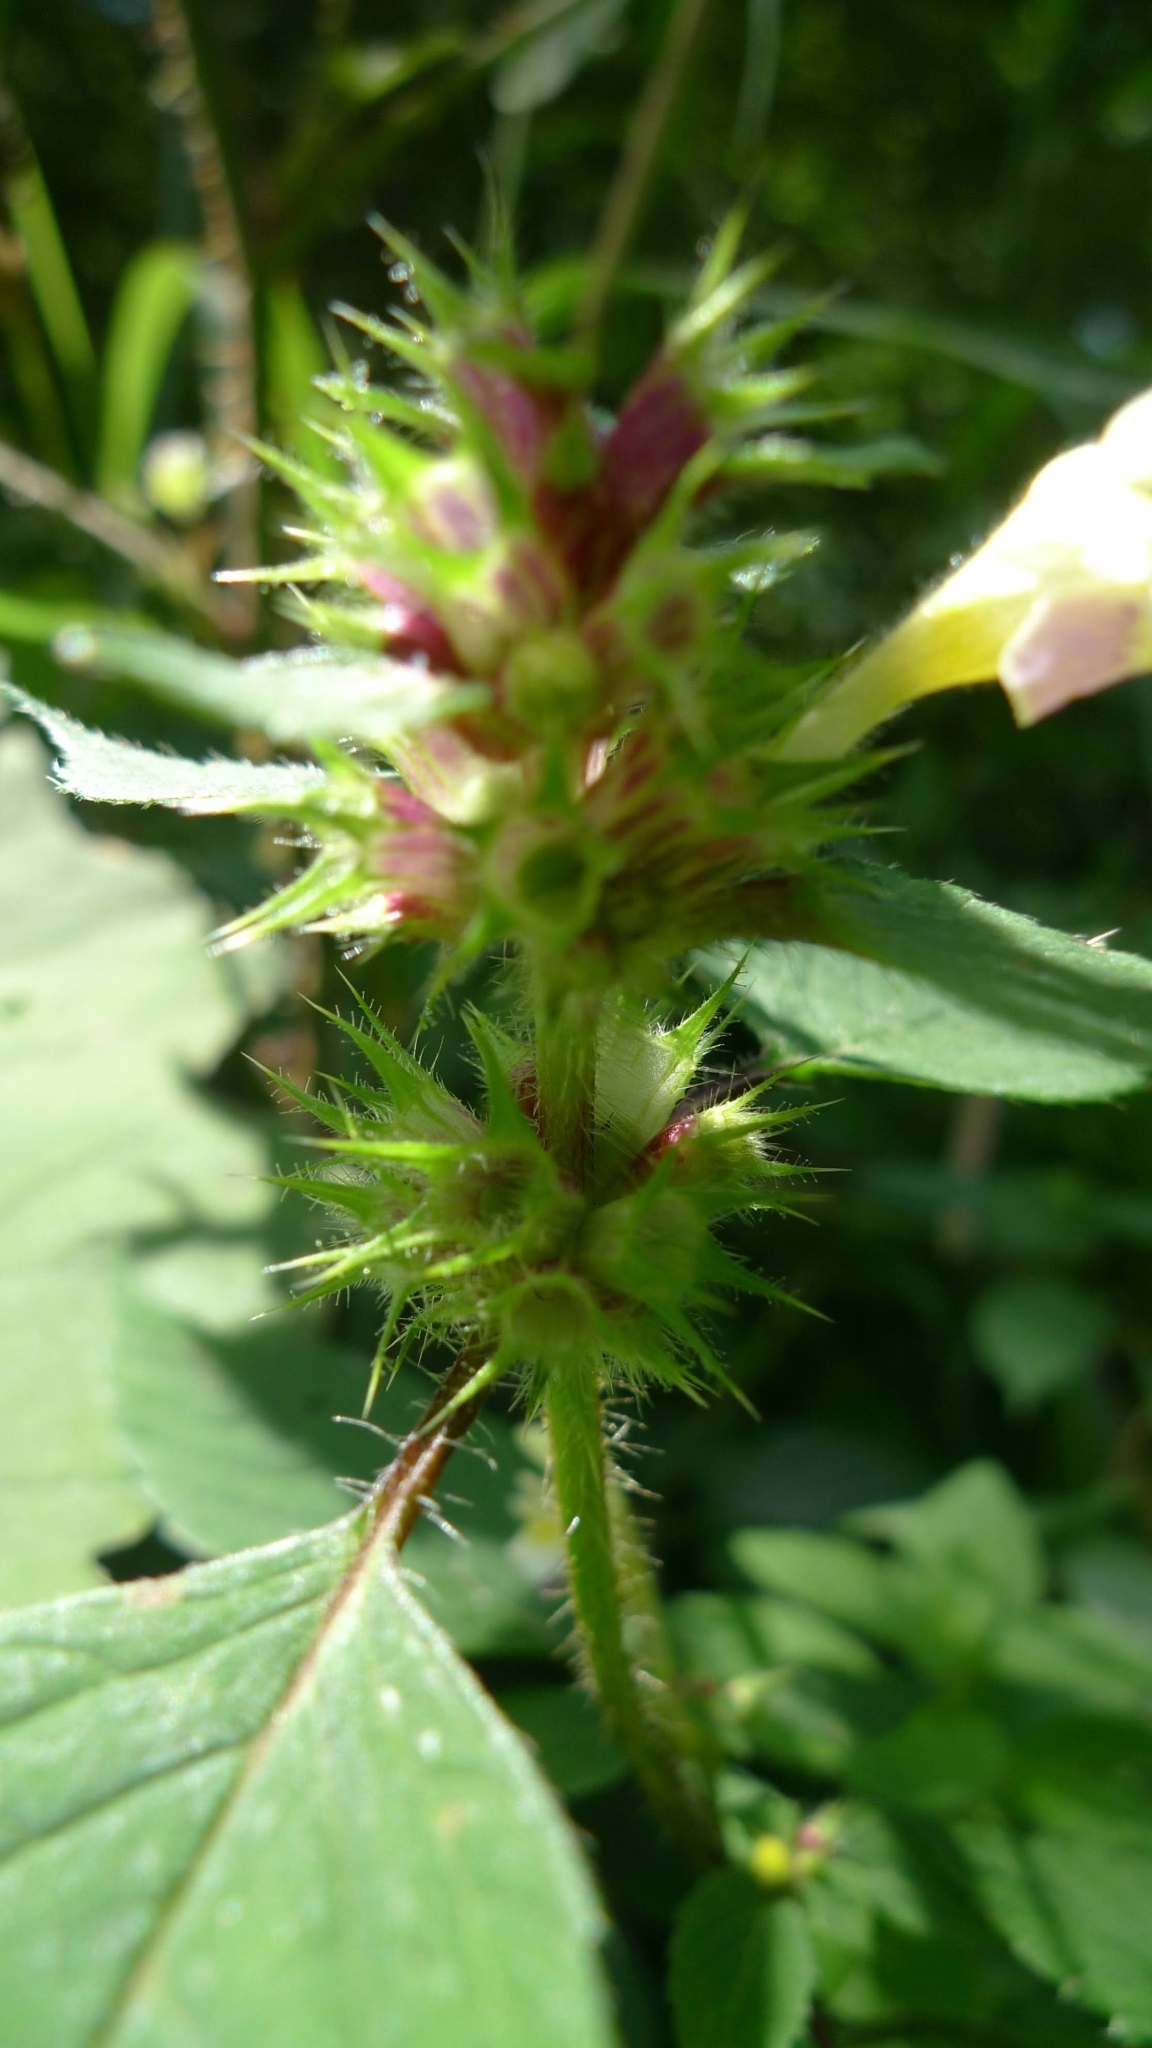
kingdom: Plantae
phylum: Tracheophyta
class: Magnoliopsida
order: Lamiales
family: Lamiaceae
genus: Galeopsis
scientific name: Galeopsis speciosa
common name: Large-flowered hemp-nettle
